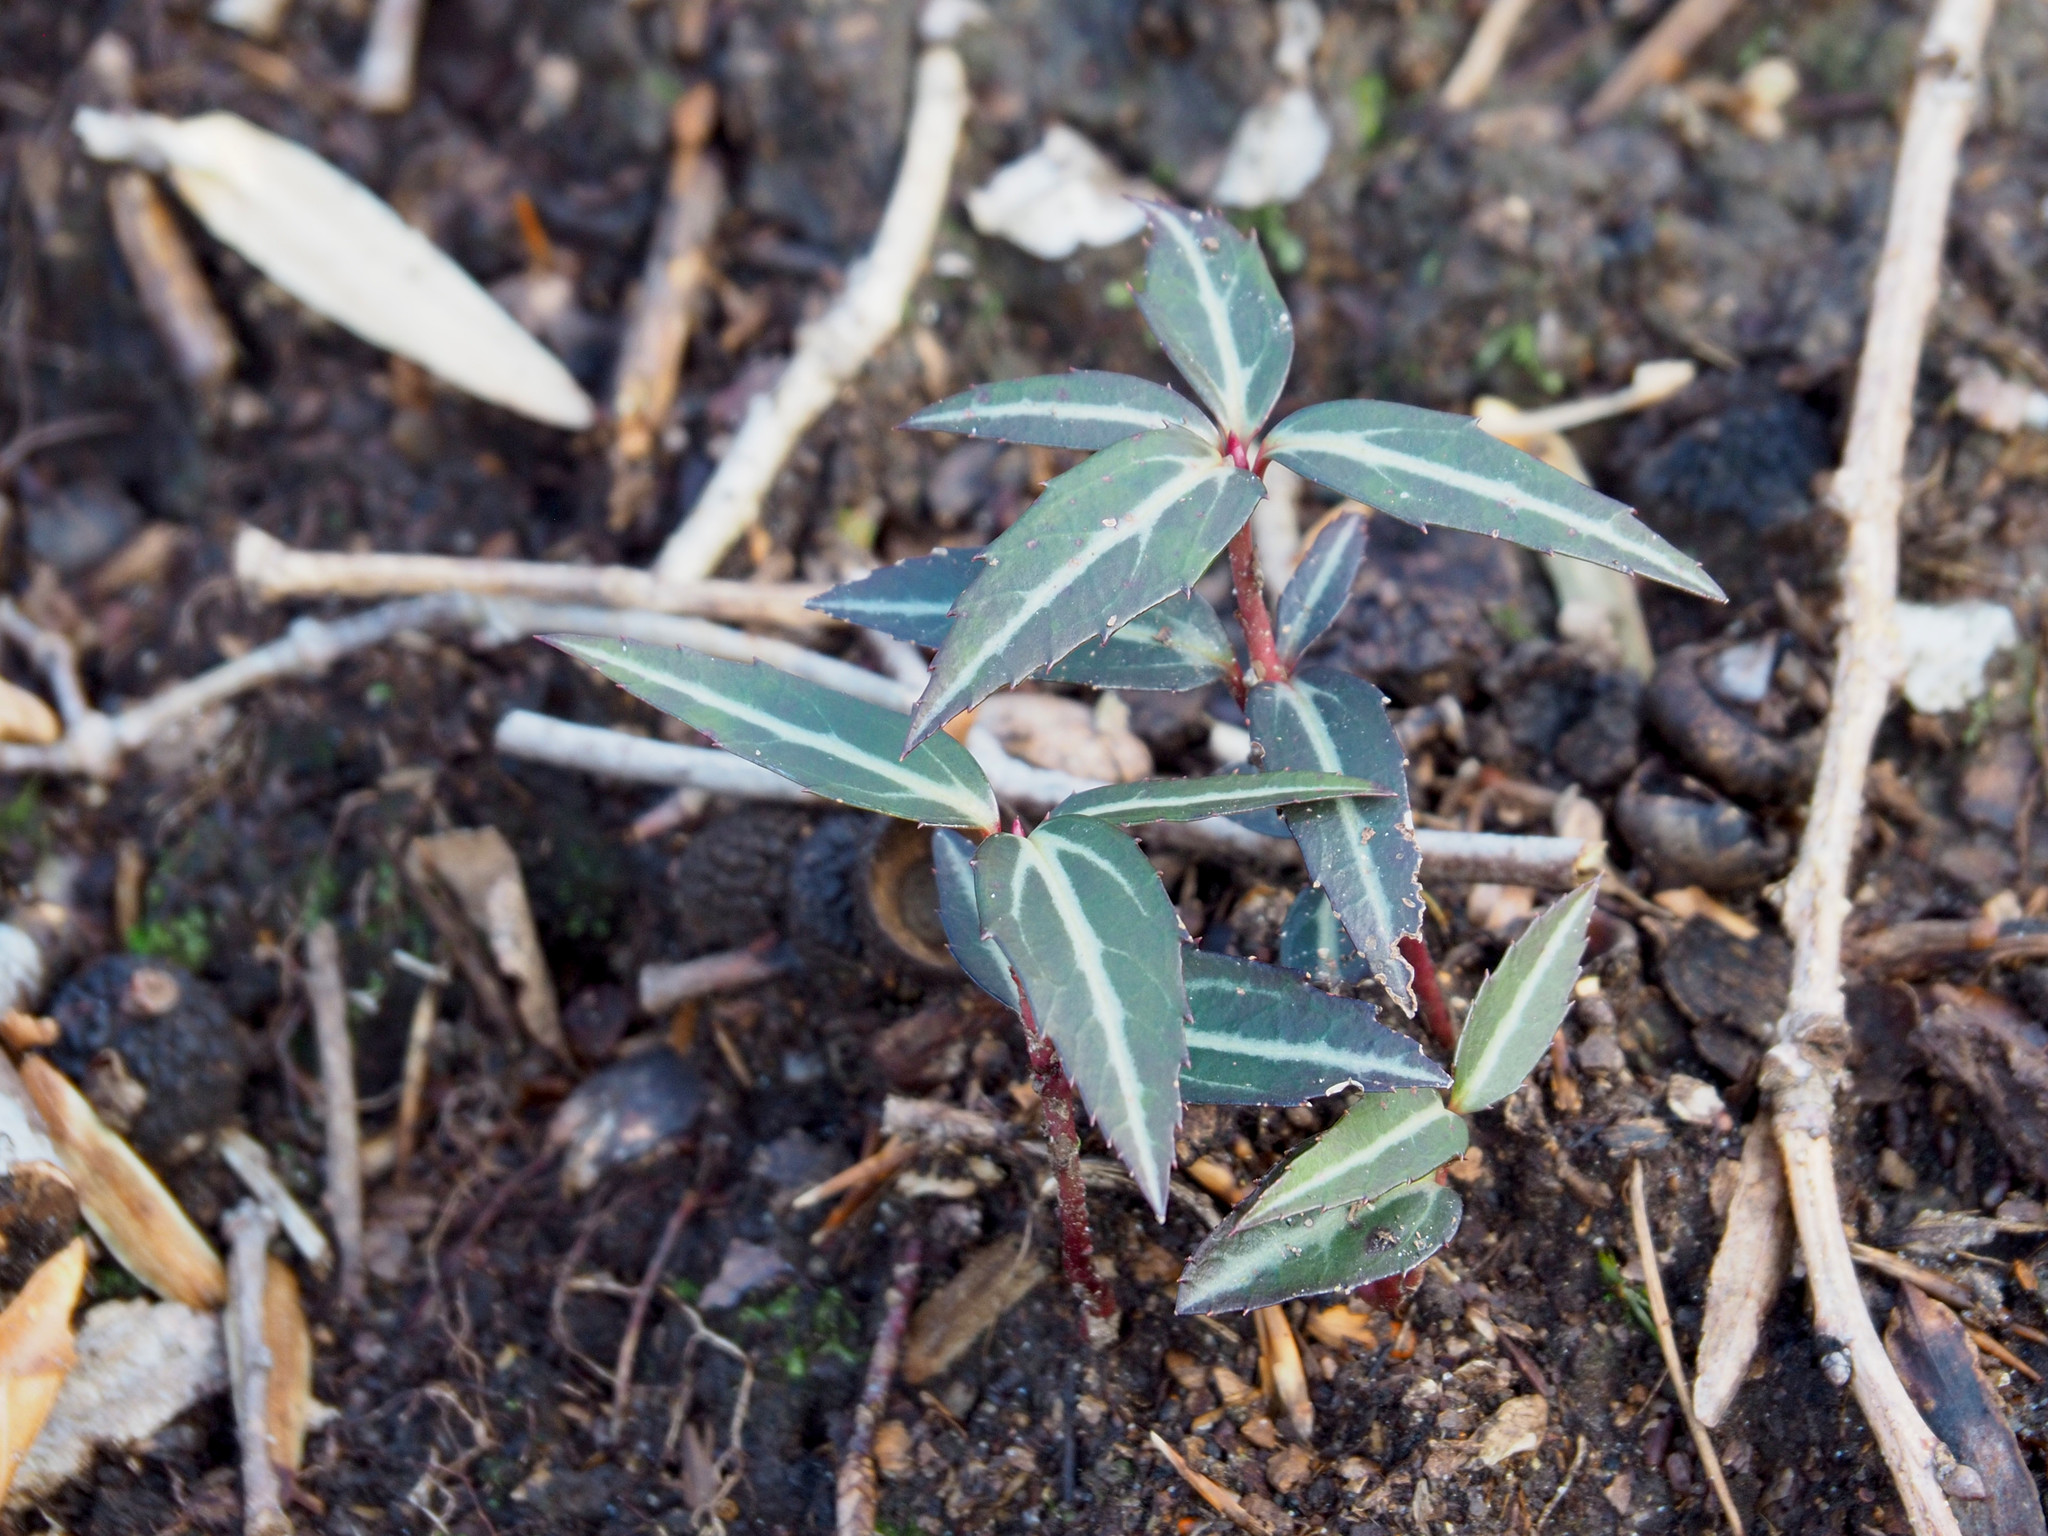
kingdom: Plantae
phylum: Tracheophyta
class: Magnoliopsida
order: Ericales
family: Ericaceae
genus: Chimaphila
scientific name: Chimaphila maculata
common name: Spotted pipsissewa
